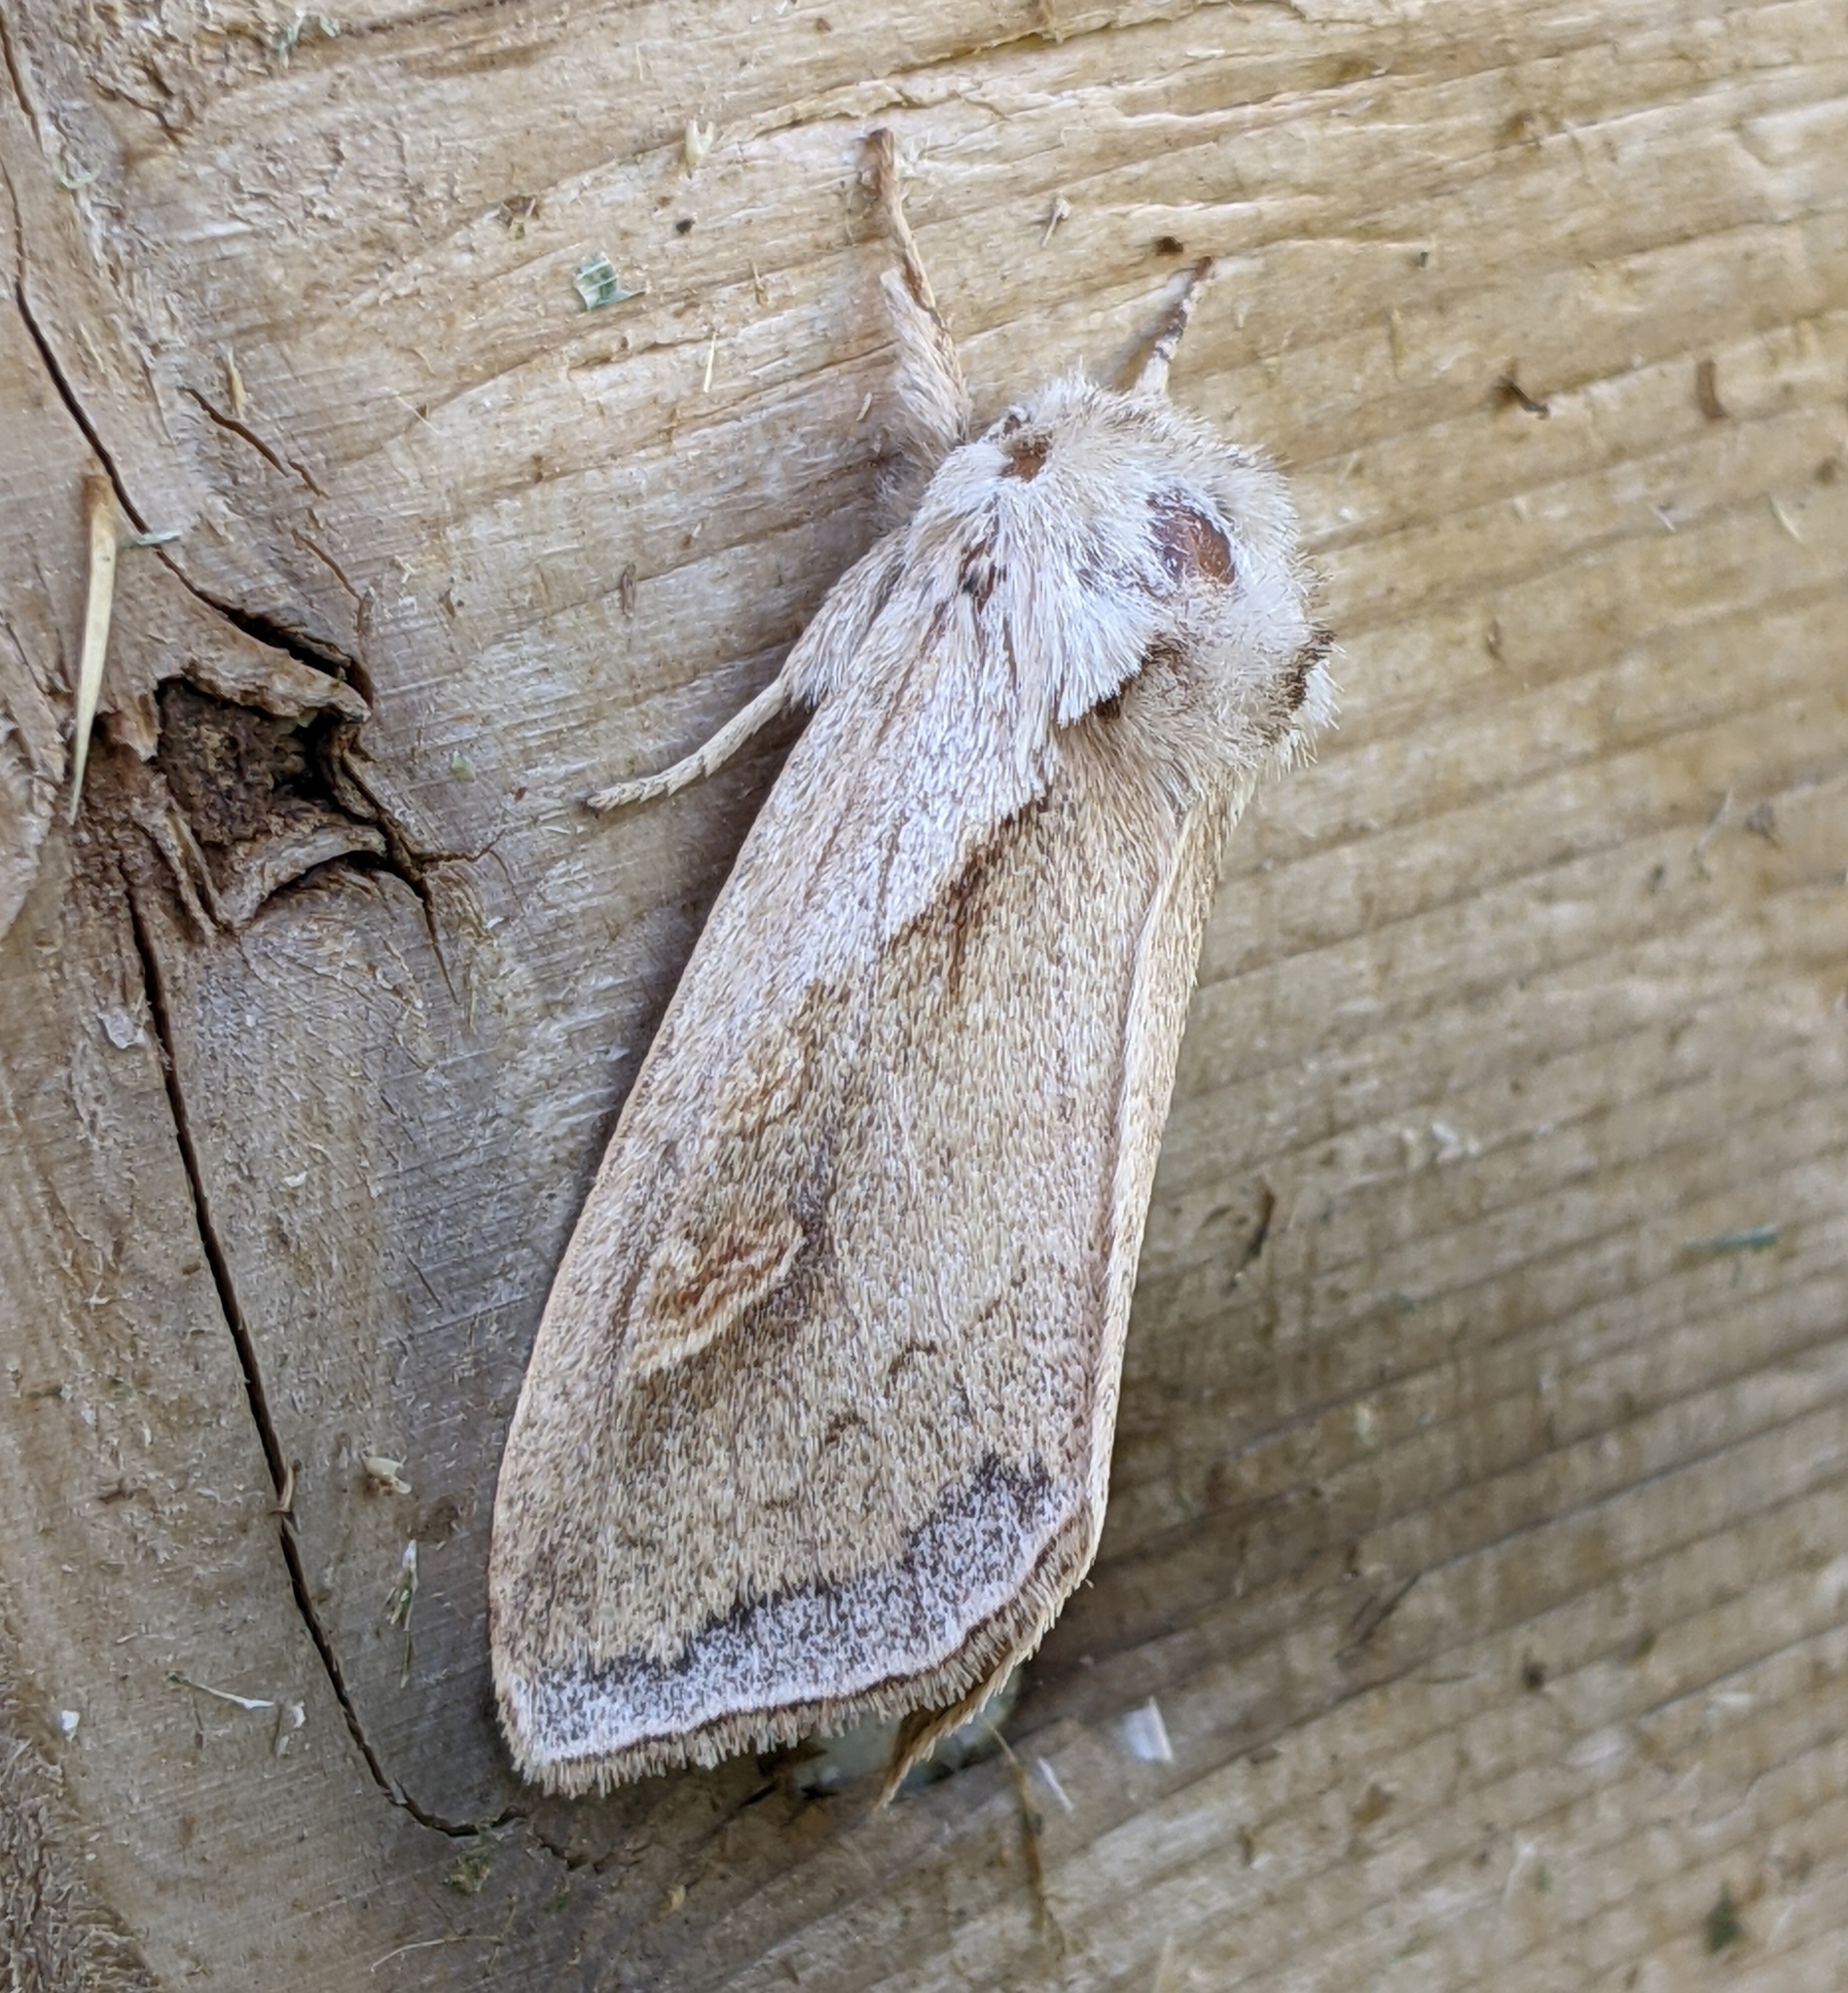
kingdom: Animalia
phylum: Arthropoda
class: Insecta
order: Lepidoptera
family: Noctuidae
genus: Bellura
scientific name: Bellura obliqua
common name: Cattail borer moth
